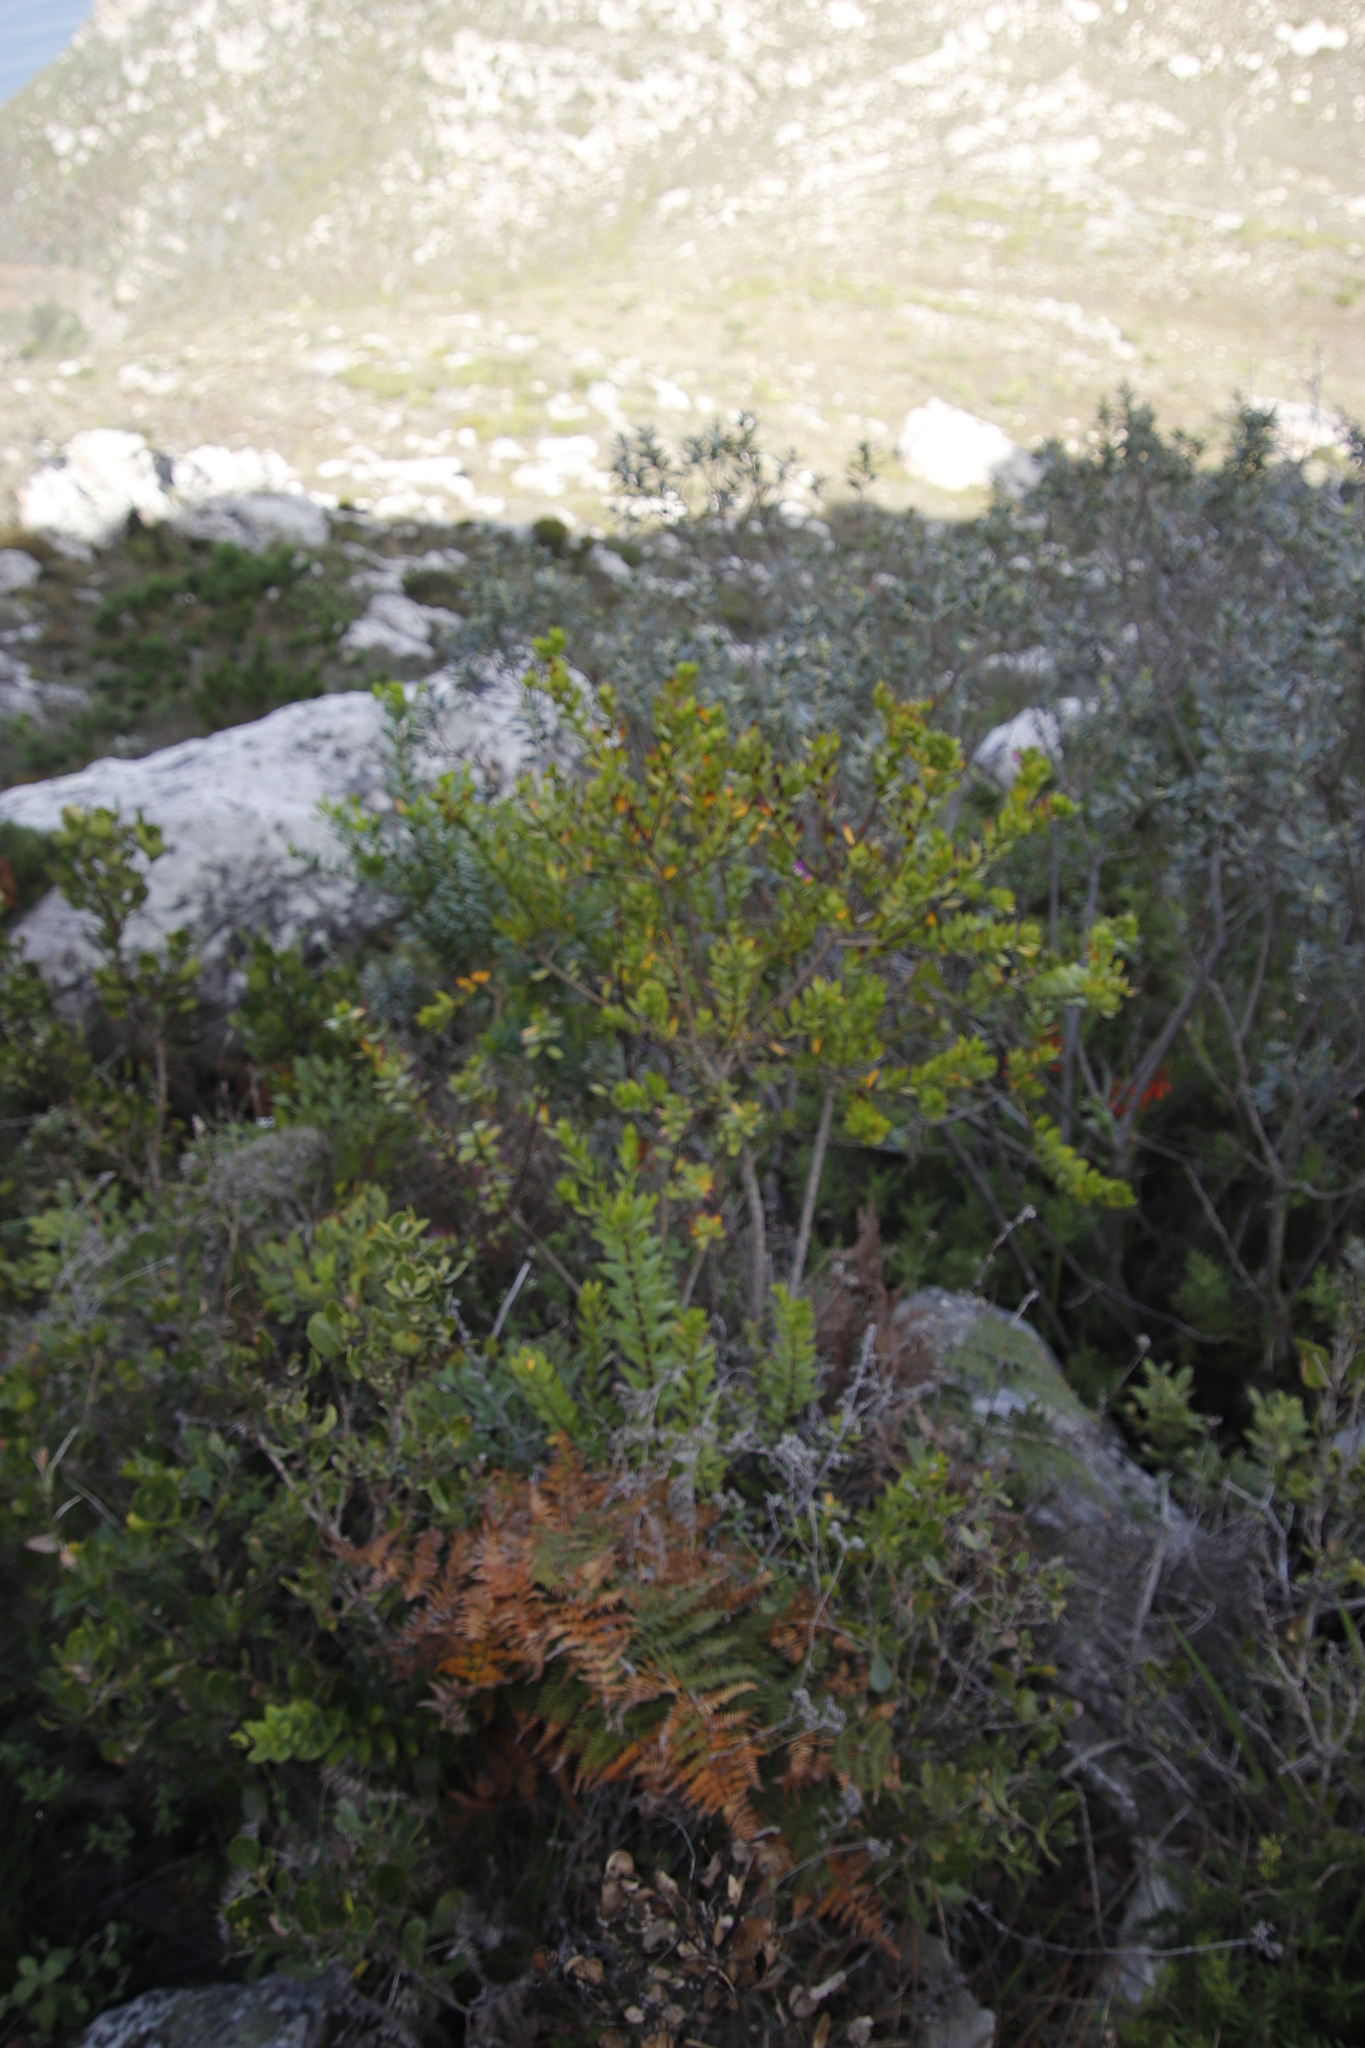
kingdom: Plantae
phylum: Tracheophyta
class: Magnoliopsida
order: Fabales
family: Polygalaceae
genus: Polygala
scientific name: Polygala myrtifolia
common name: Myrtle-leaf milkwort
